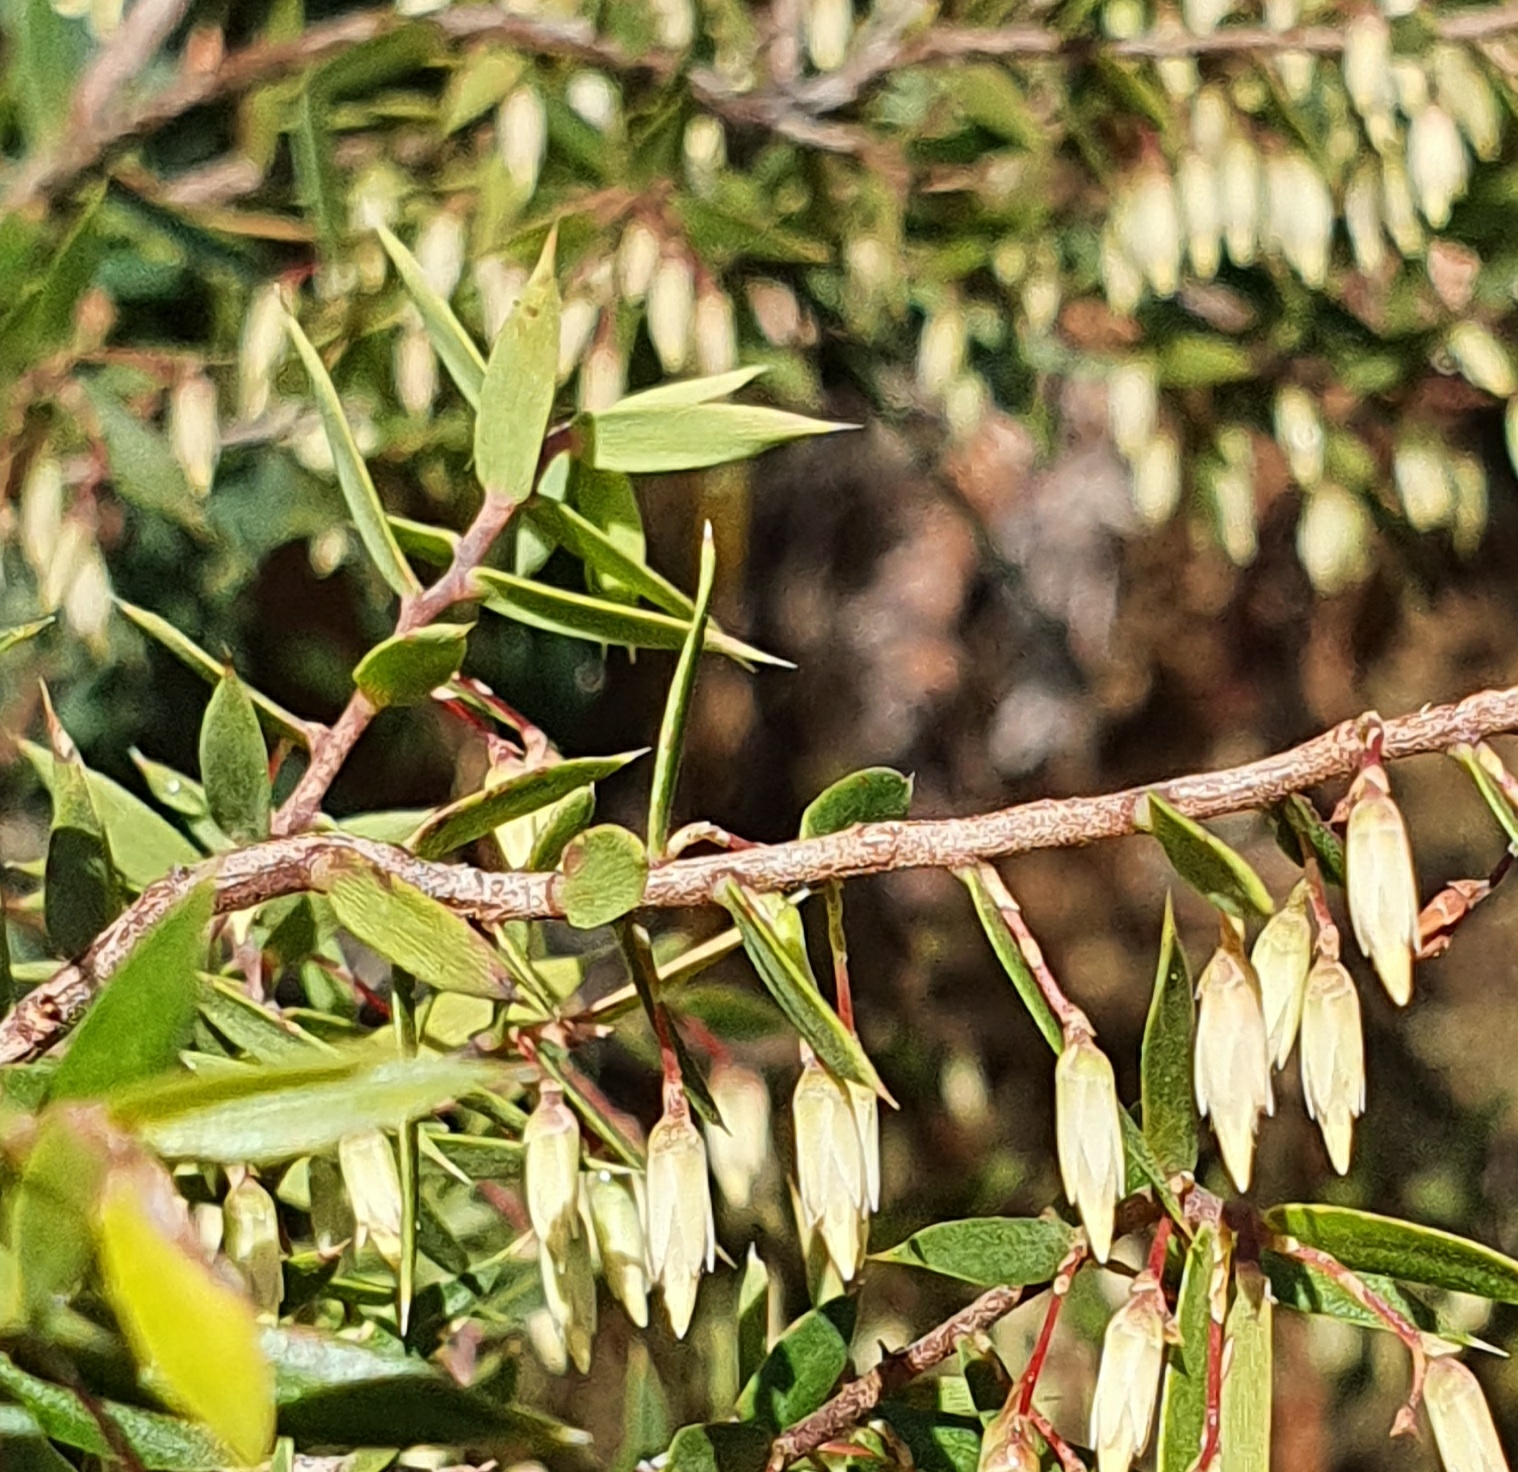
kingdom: Plantae
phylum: Tracheophyta
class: Magnoliopsida
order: Ericales
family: Ericaceae
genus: Styphelia
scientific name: Styphelia setigera
